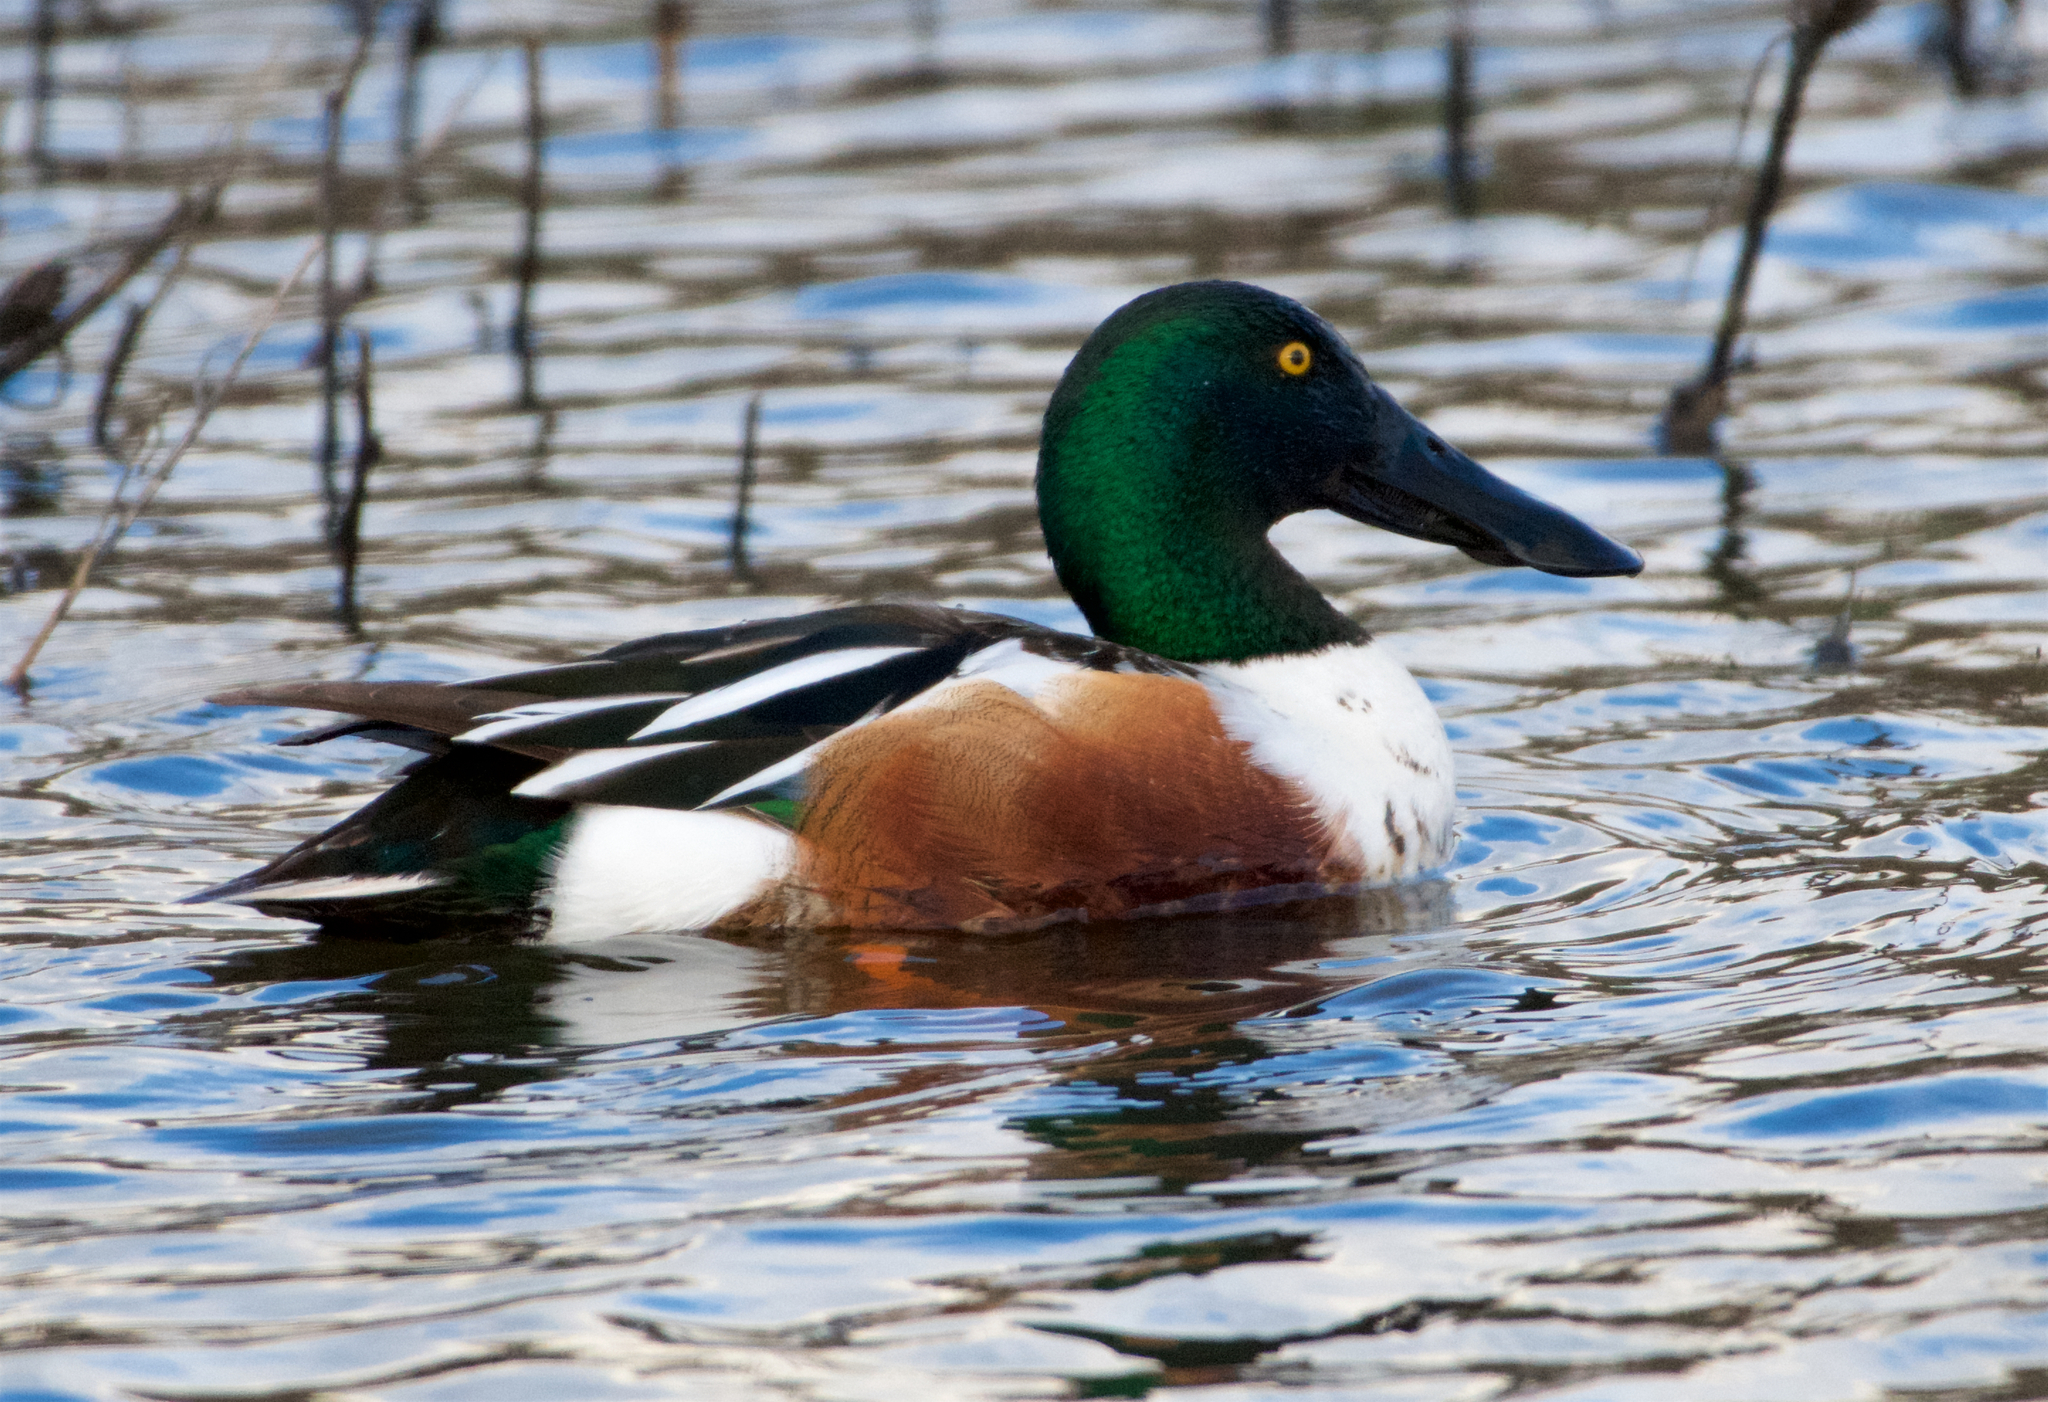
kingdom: Animalia
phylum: Chordata
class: Aves
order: Anseriformes
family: Anatidae
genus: Spatula
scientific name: Spatula clypeata
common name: Northern shoveler
